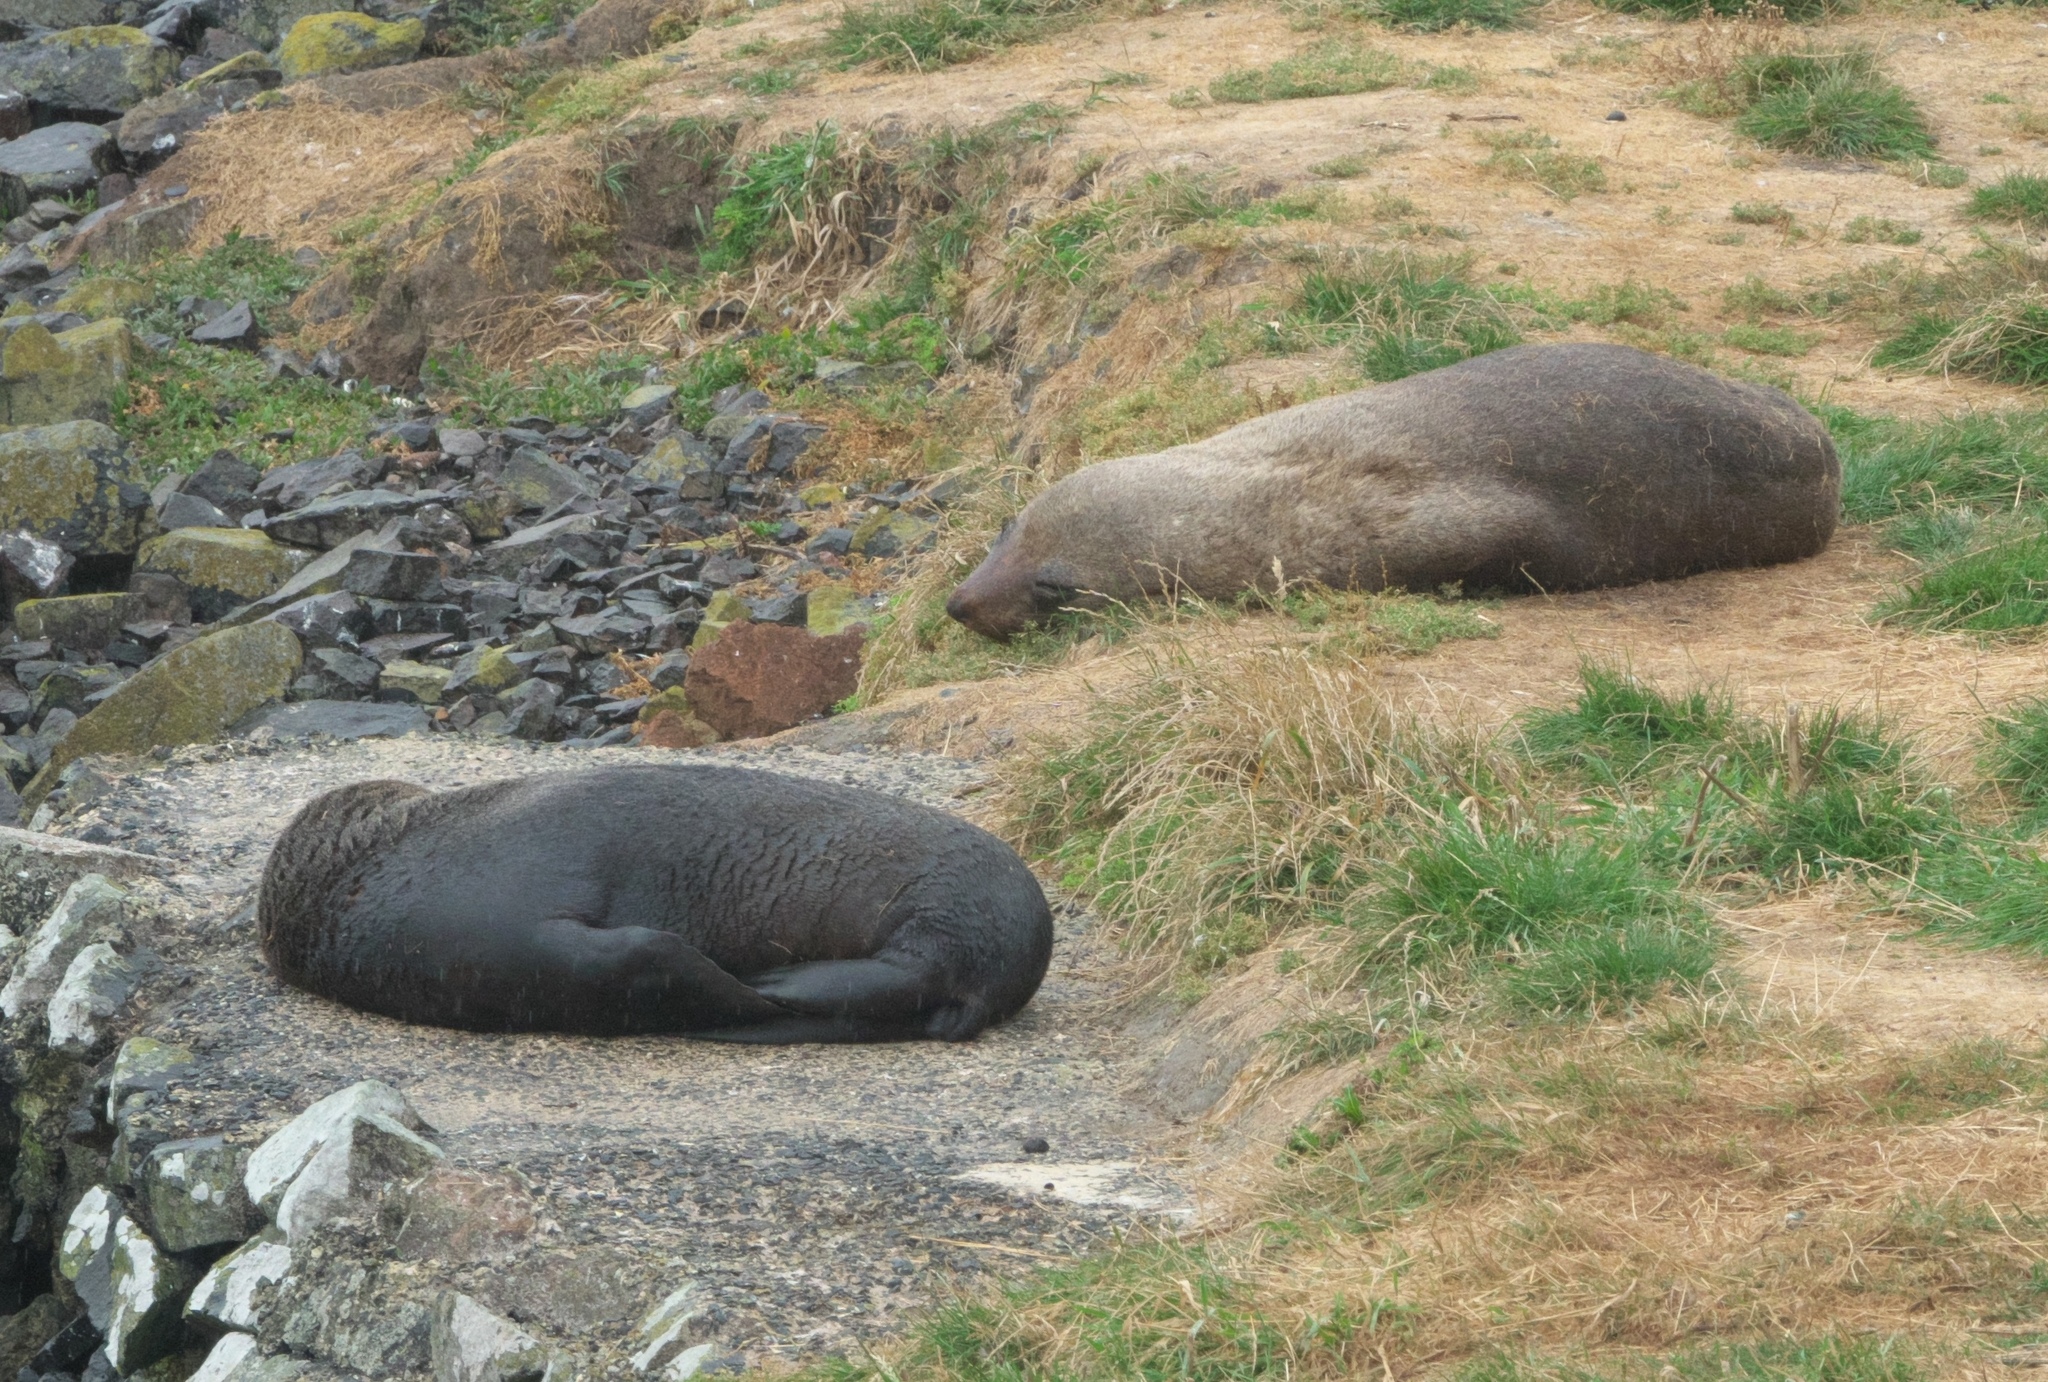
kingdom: Animalia
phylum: Chordata
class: Mammalia
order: Carnivora
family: Otariidae
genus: Arctocephalus
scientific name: Arctocephalus forsteri
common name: New zealand fur seal
